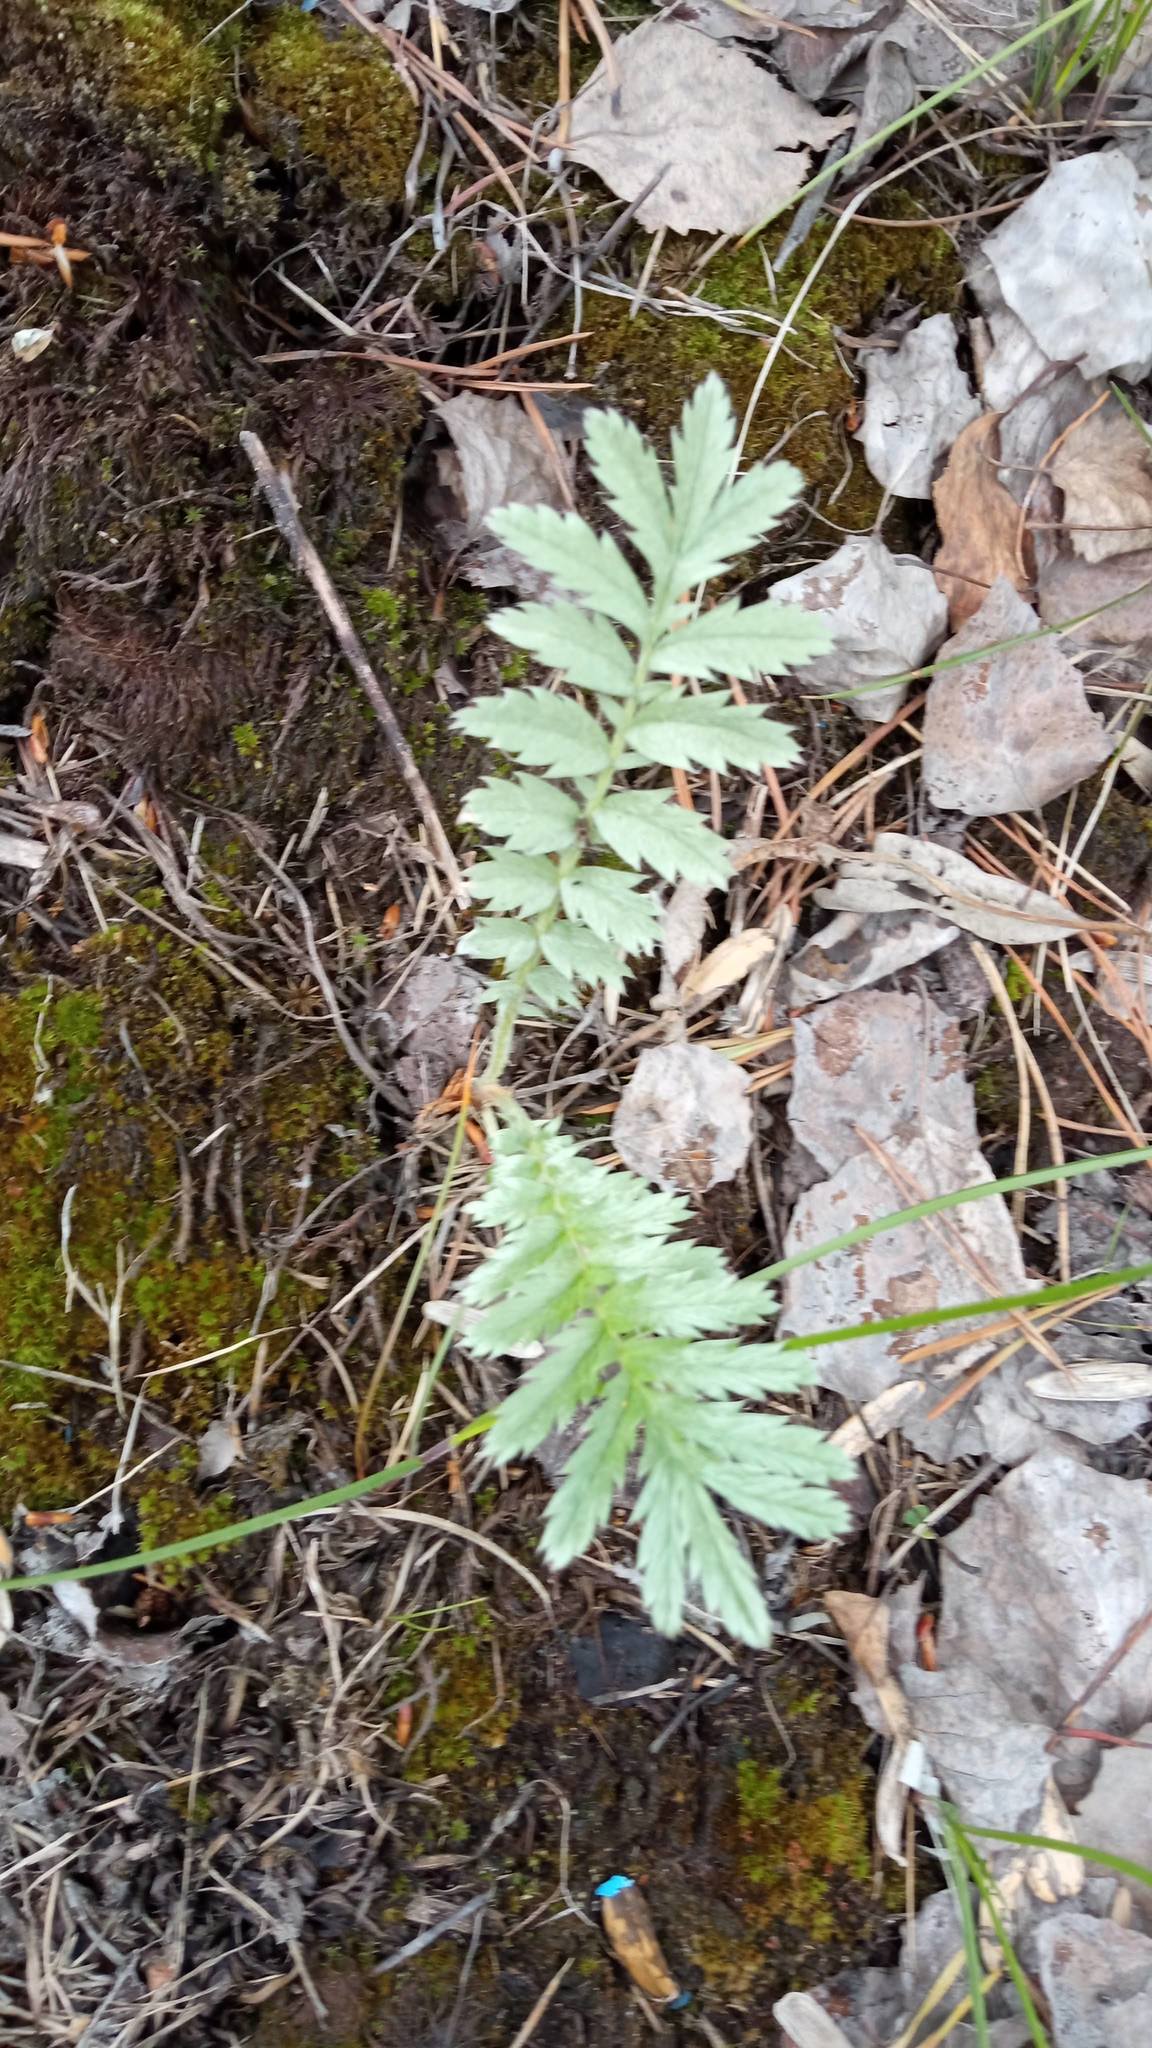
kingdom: Plantae
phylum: Tracheophyta
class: Magnoliopsida
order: Rosales
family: Rosaceae
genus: Argentina
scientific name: Argentina anserina
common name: Common silverweed
